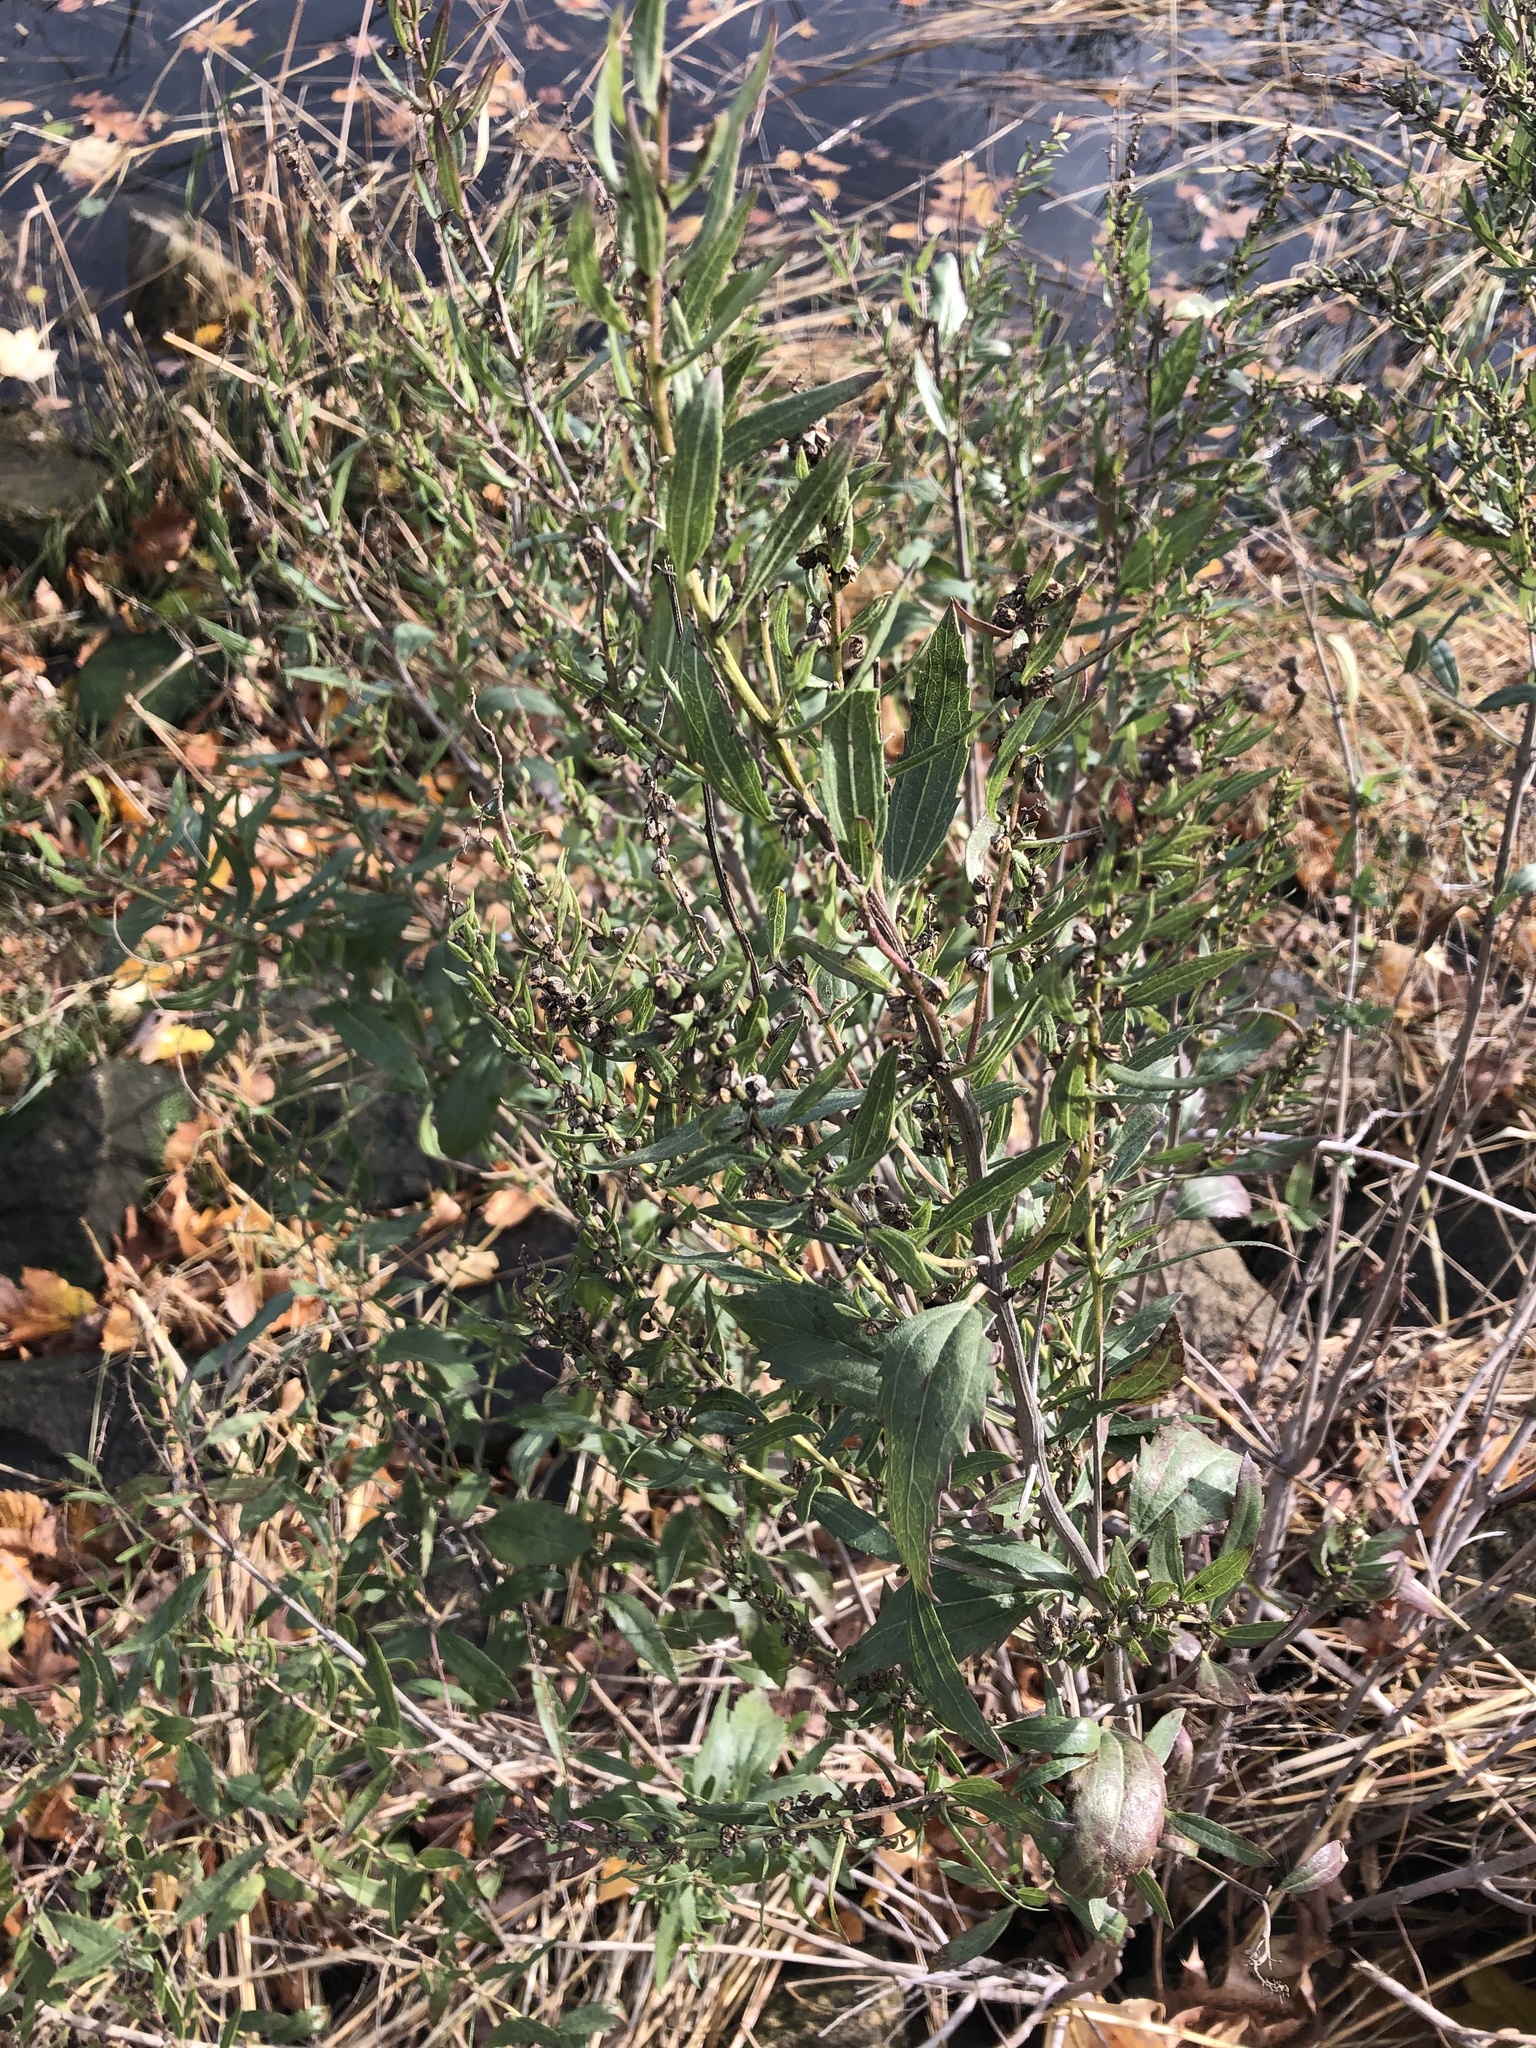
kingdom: Plantae
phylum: Tracheophyta
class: Magnoliopsida
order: Asterales
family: Asteraceae
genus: Iva
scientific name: Iva frutescens
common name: Big-leaved marsh-elder
